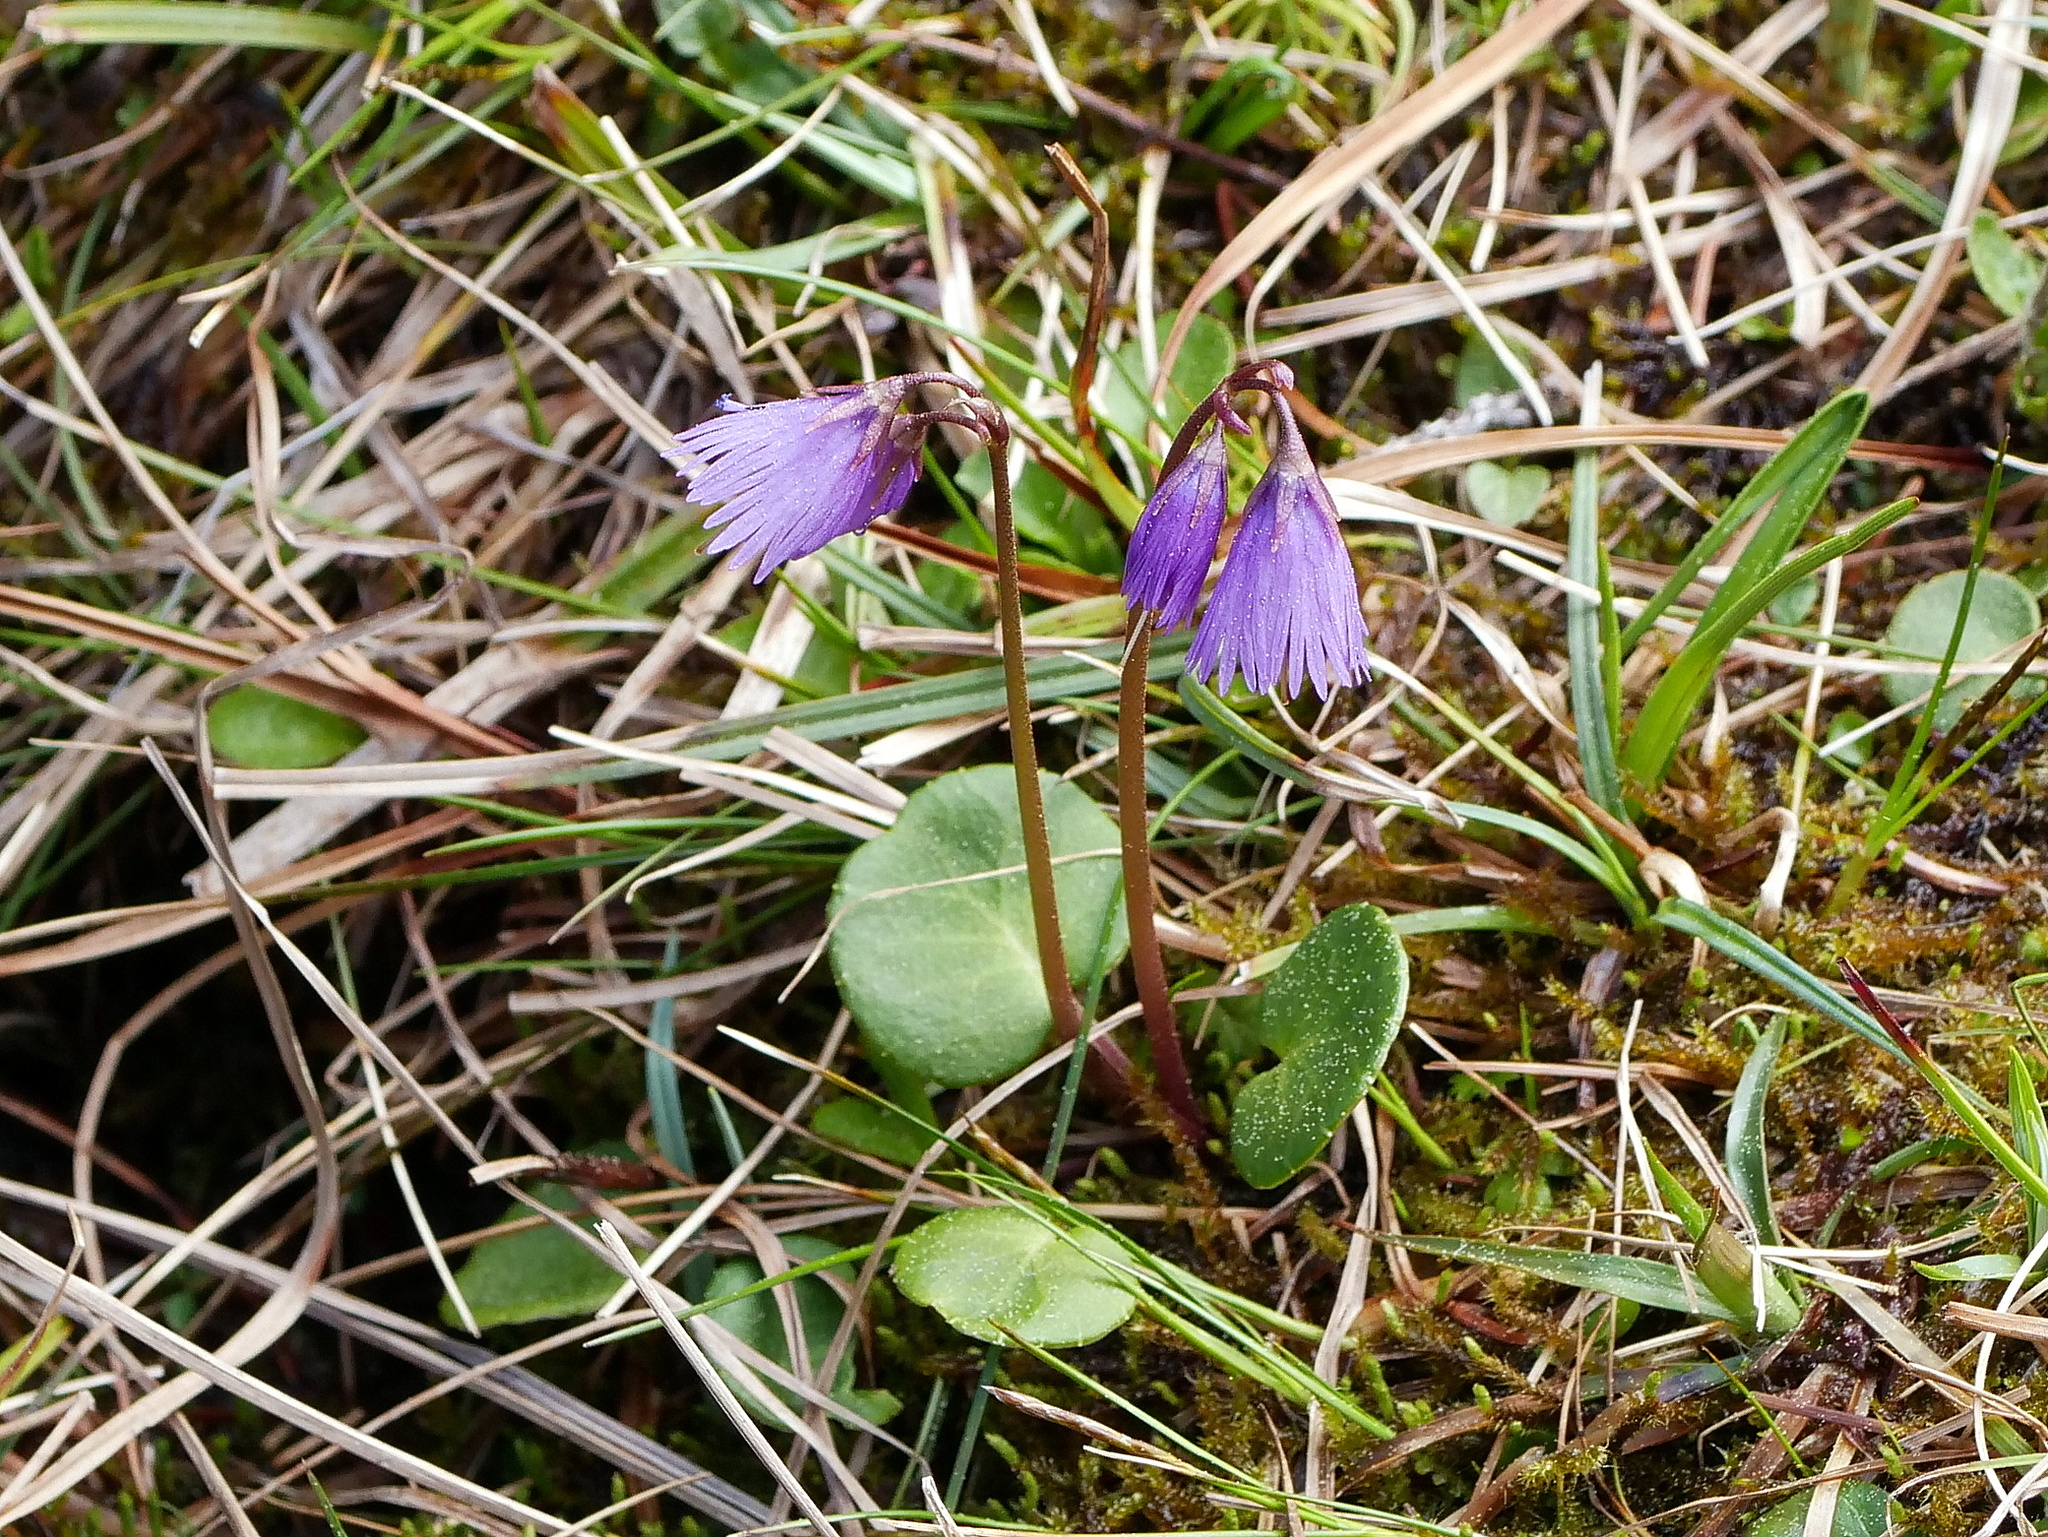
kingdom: Plantae
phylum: Tracheophyta
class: Magnoliopsida
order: Ericales
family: Primulaceae
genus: Soldanella
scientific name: Soldanella alpina
